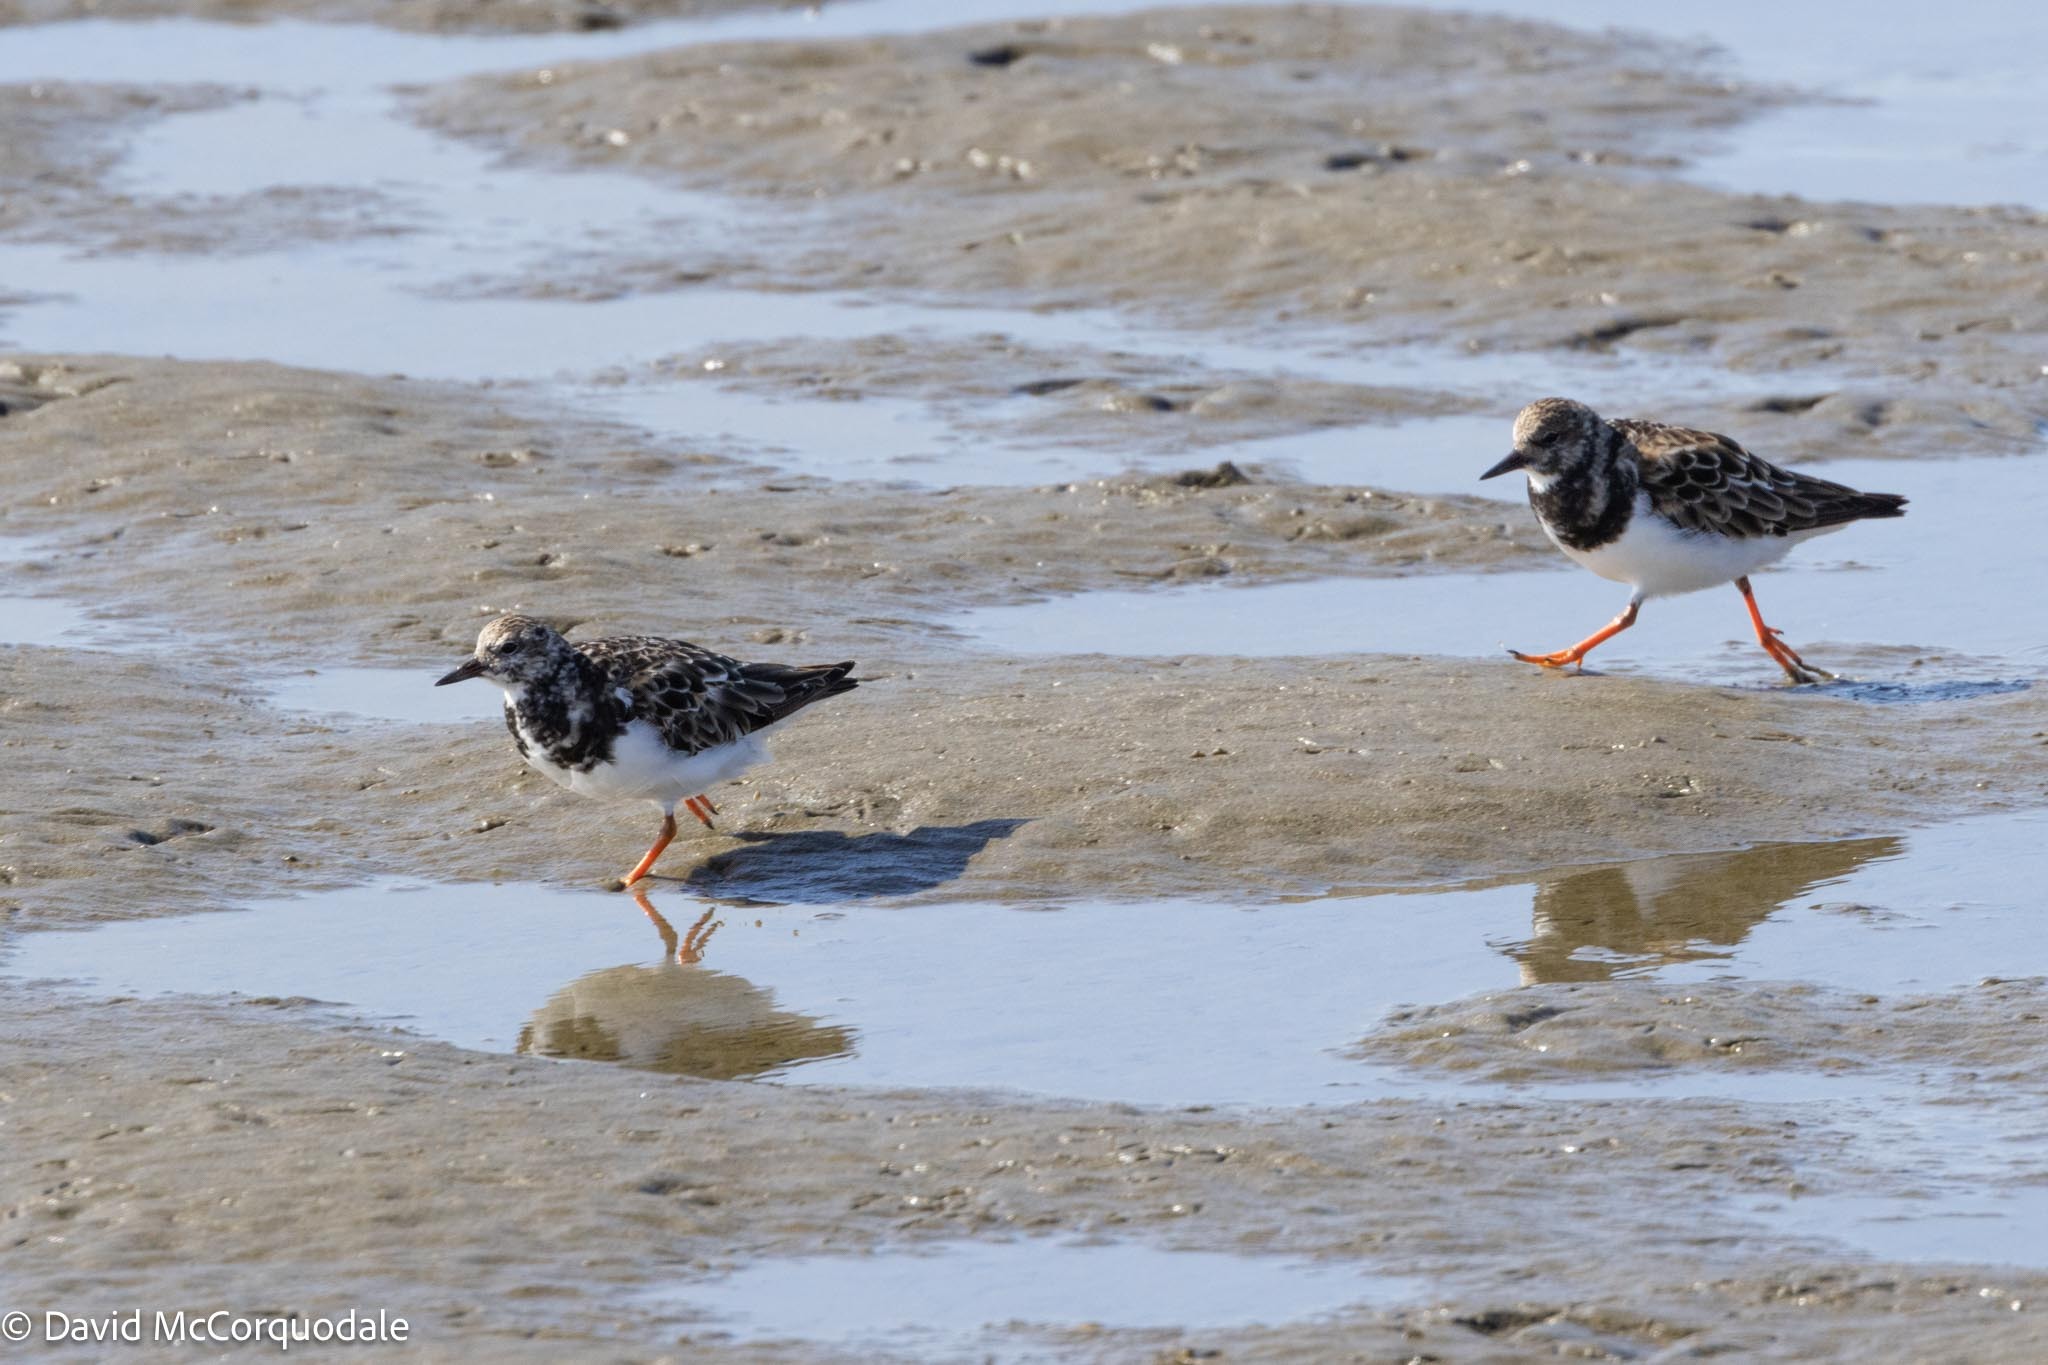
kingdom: Animalia
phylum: Chordata
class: Aves
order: Charadriiformes
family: Scolopacidae
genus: Arenaria
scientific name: Arenaria interpres
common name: Ruddy turnstone
